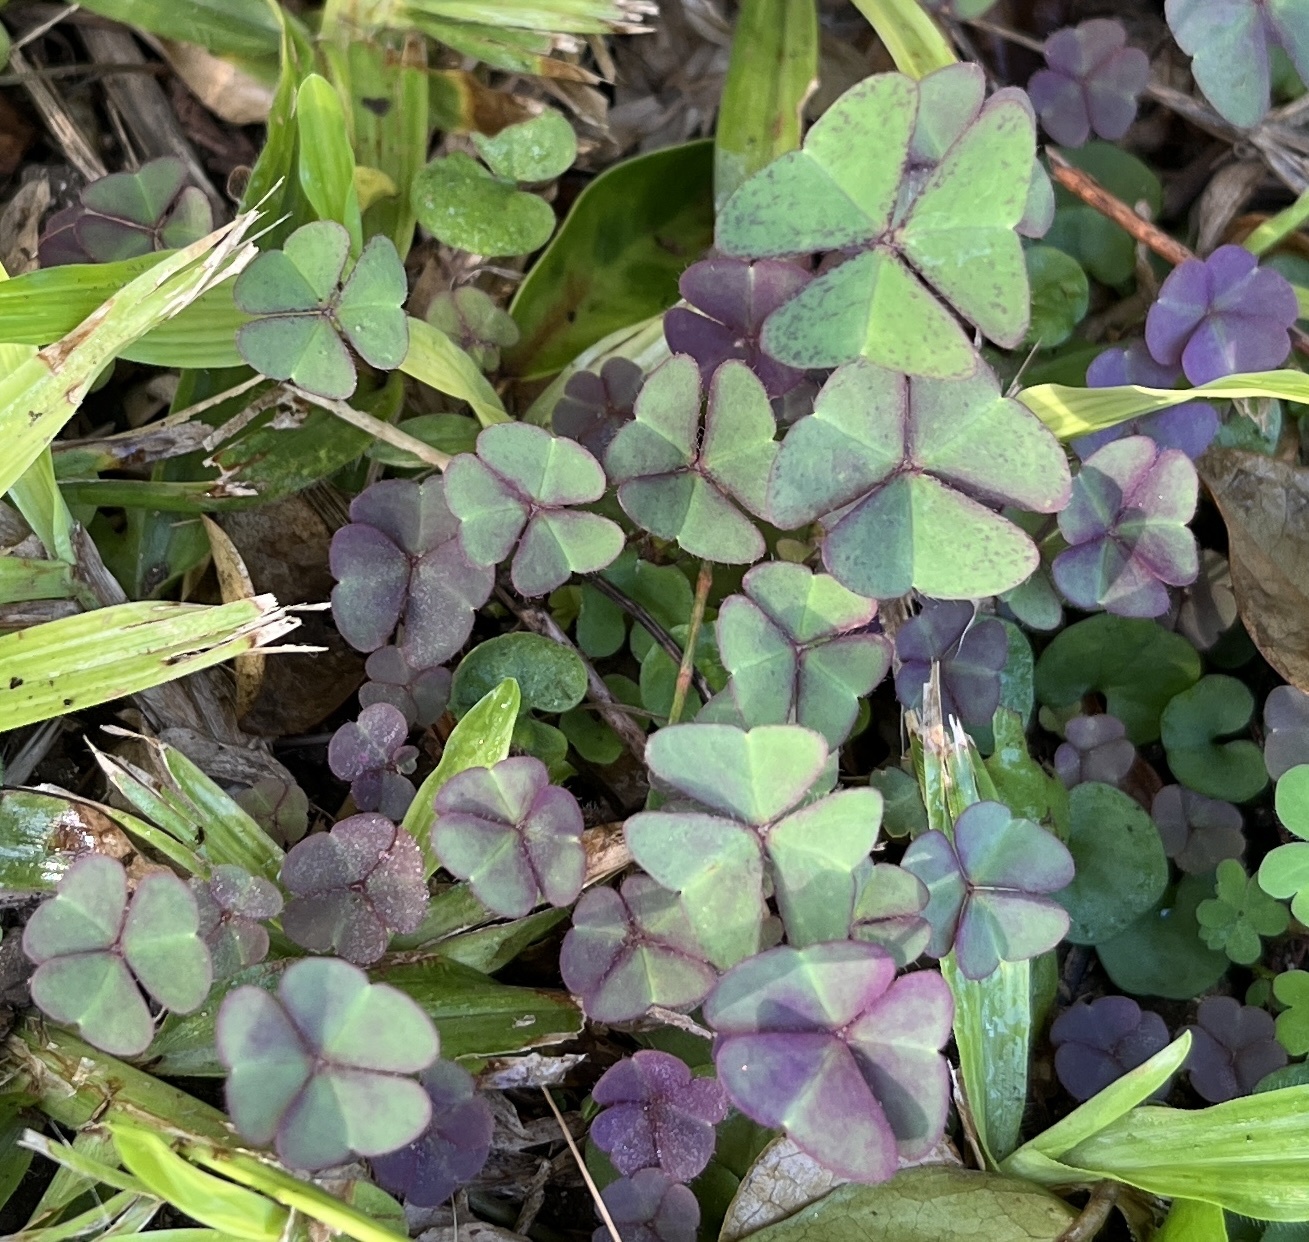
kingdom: Plantae
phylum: Tracheophyta
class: Magnoliopsida
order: Oxalidales
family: Oxalidaceae
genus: Oxalis
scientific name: Oxalis corniculata
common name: Procumbent yellow-sorrel
